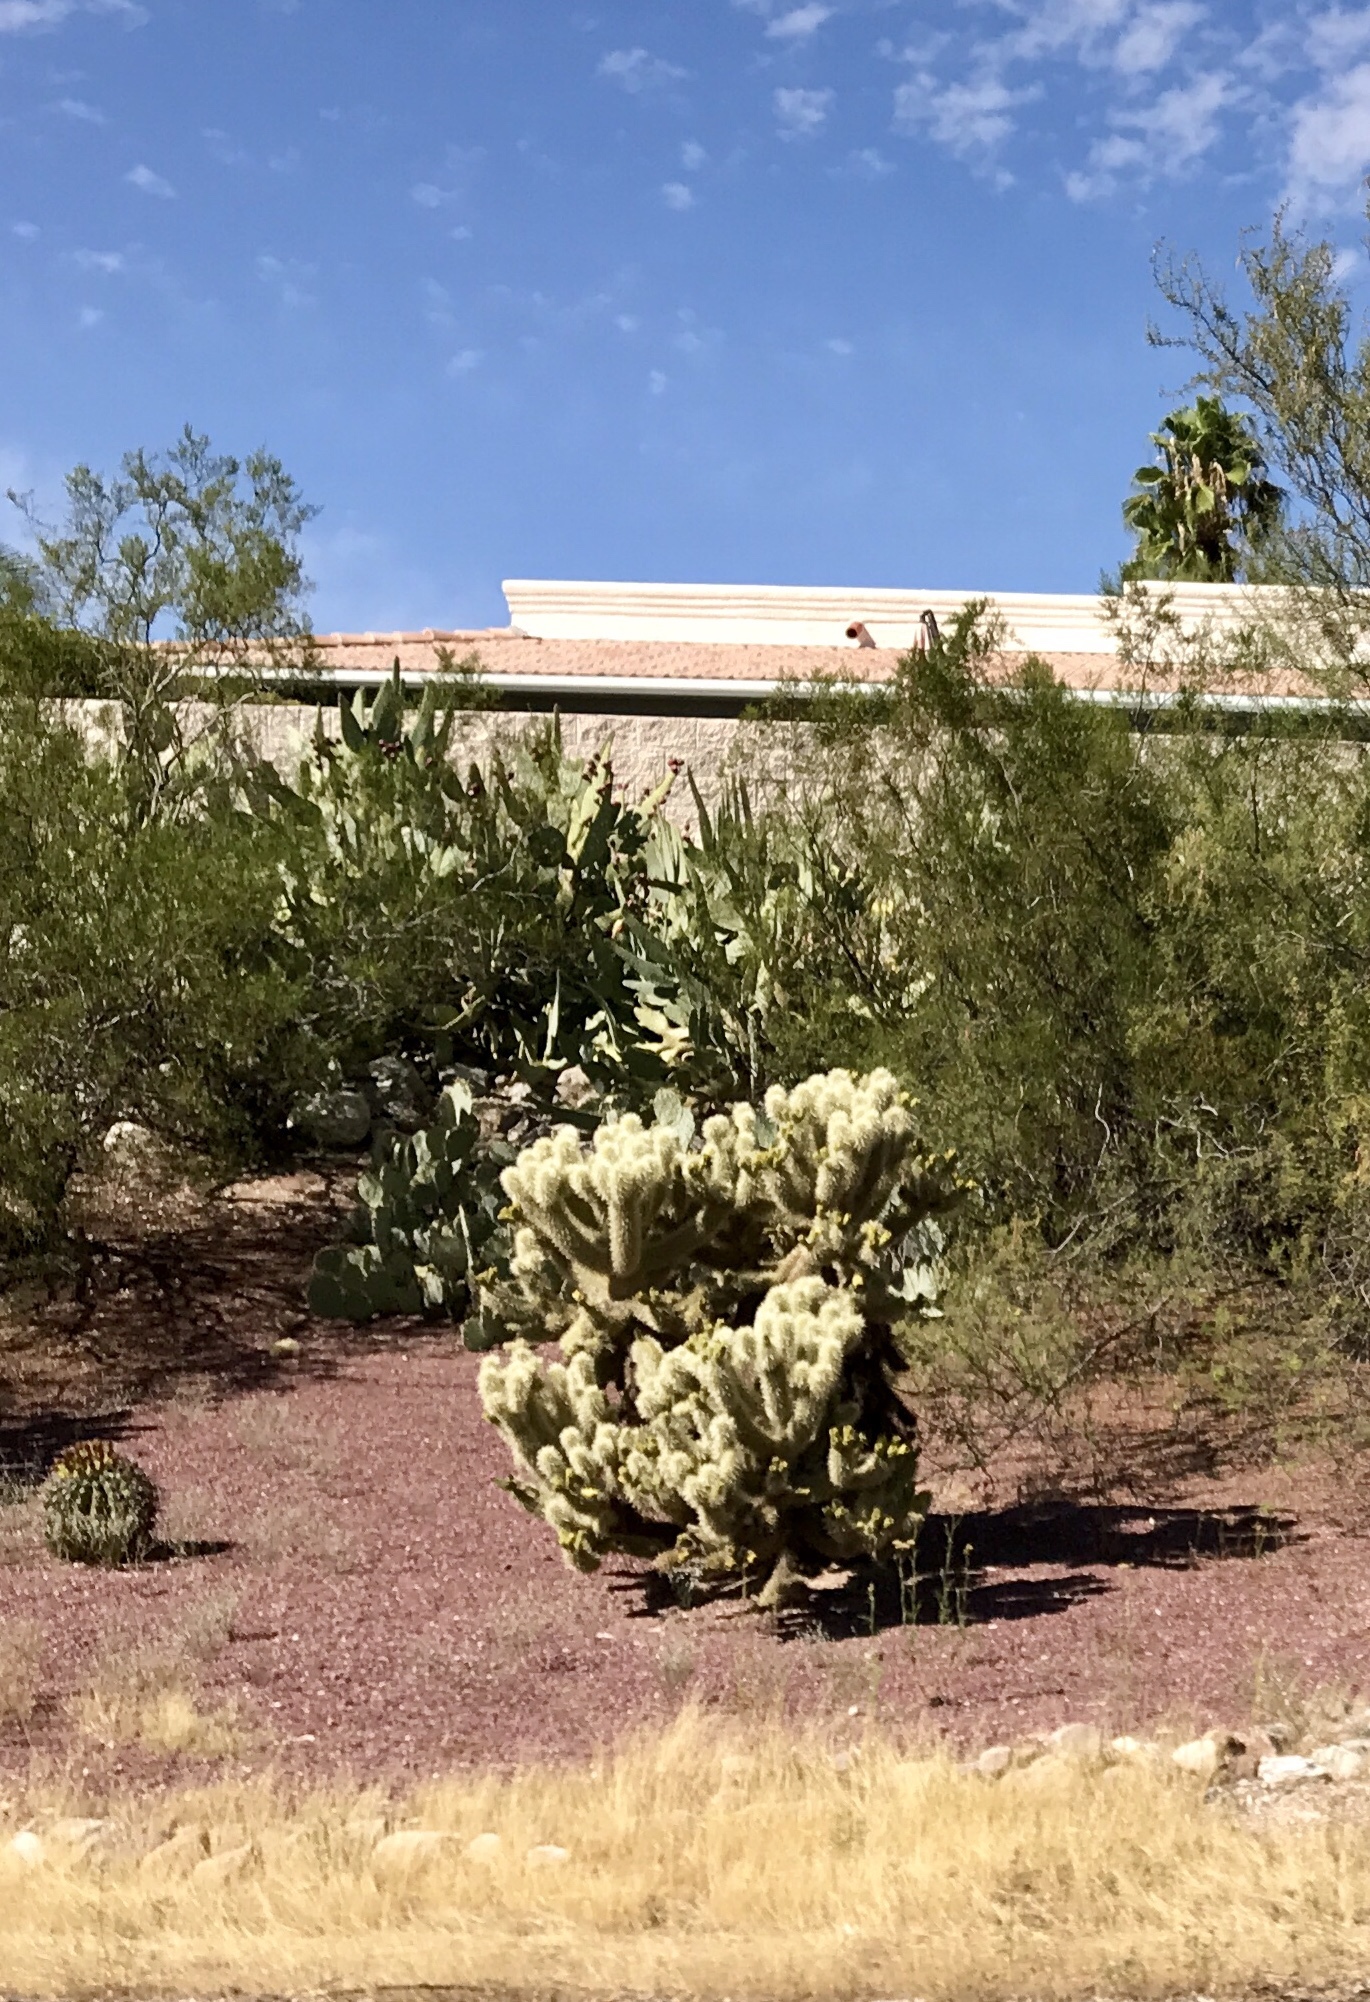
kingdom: Plantae
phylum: Tracheophyta
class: Magnoliopsida
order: Caryophyllales
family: Cactaceae
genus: Cylindropuntia
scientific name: Cylindropuntia fosbergii
